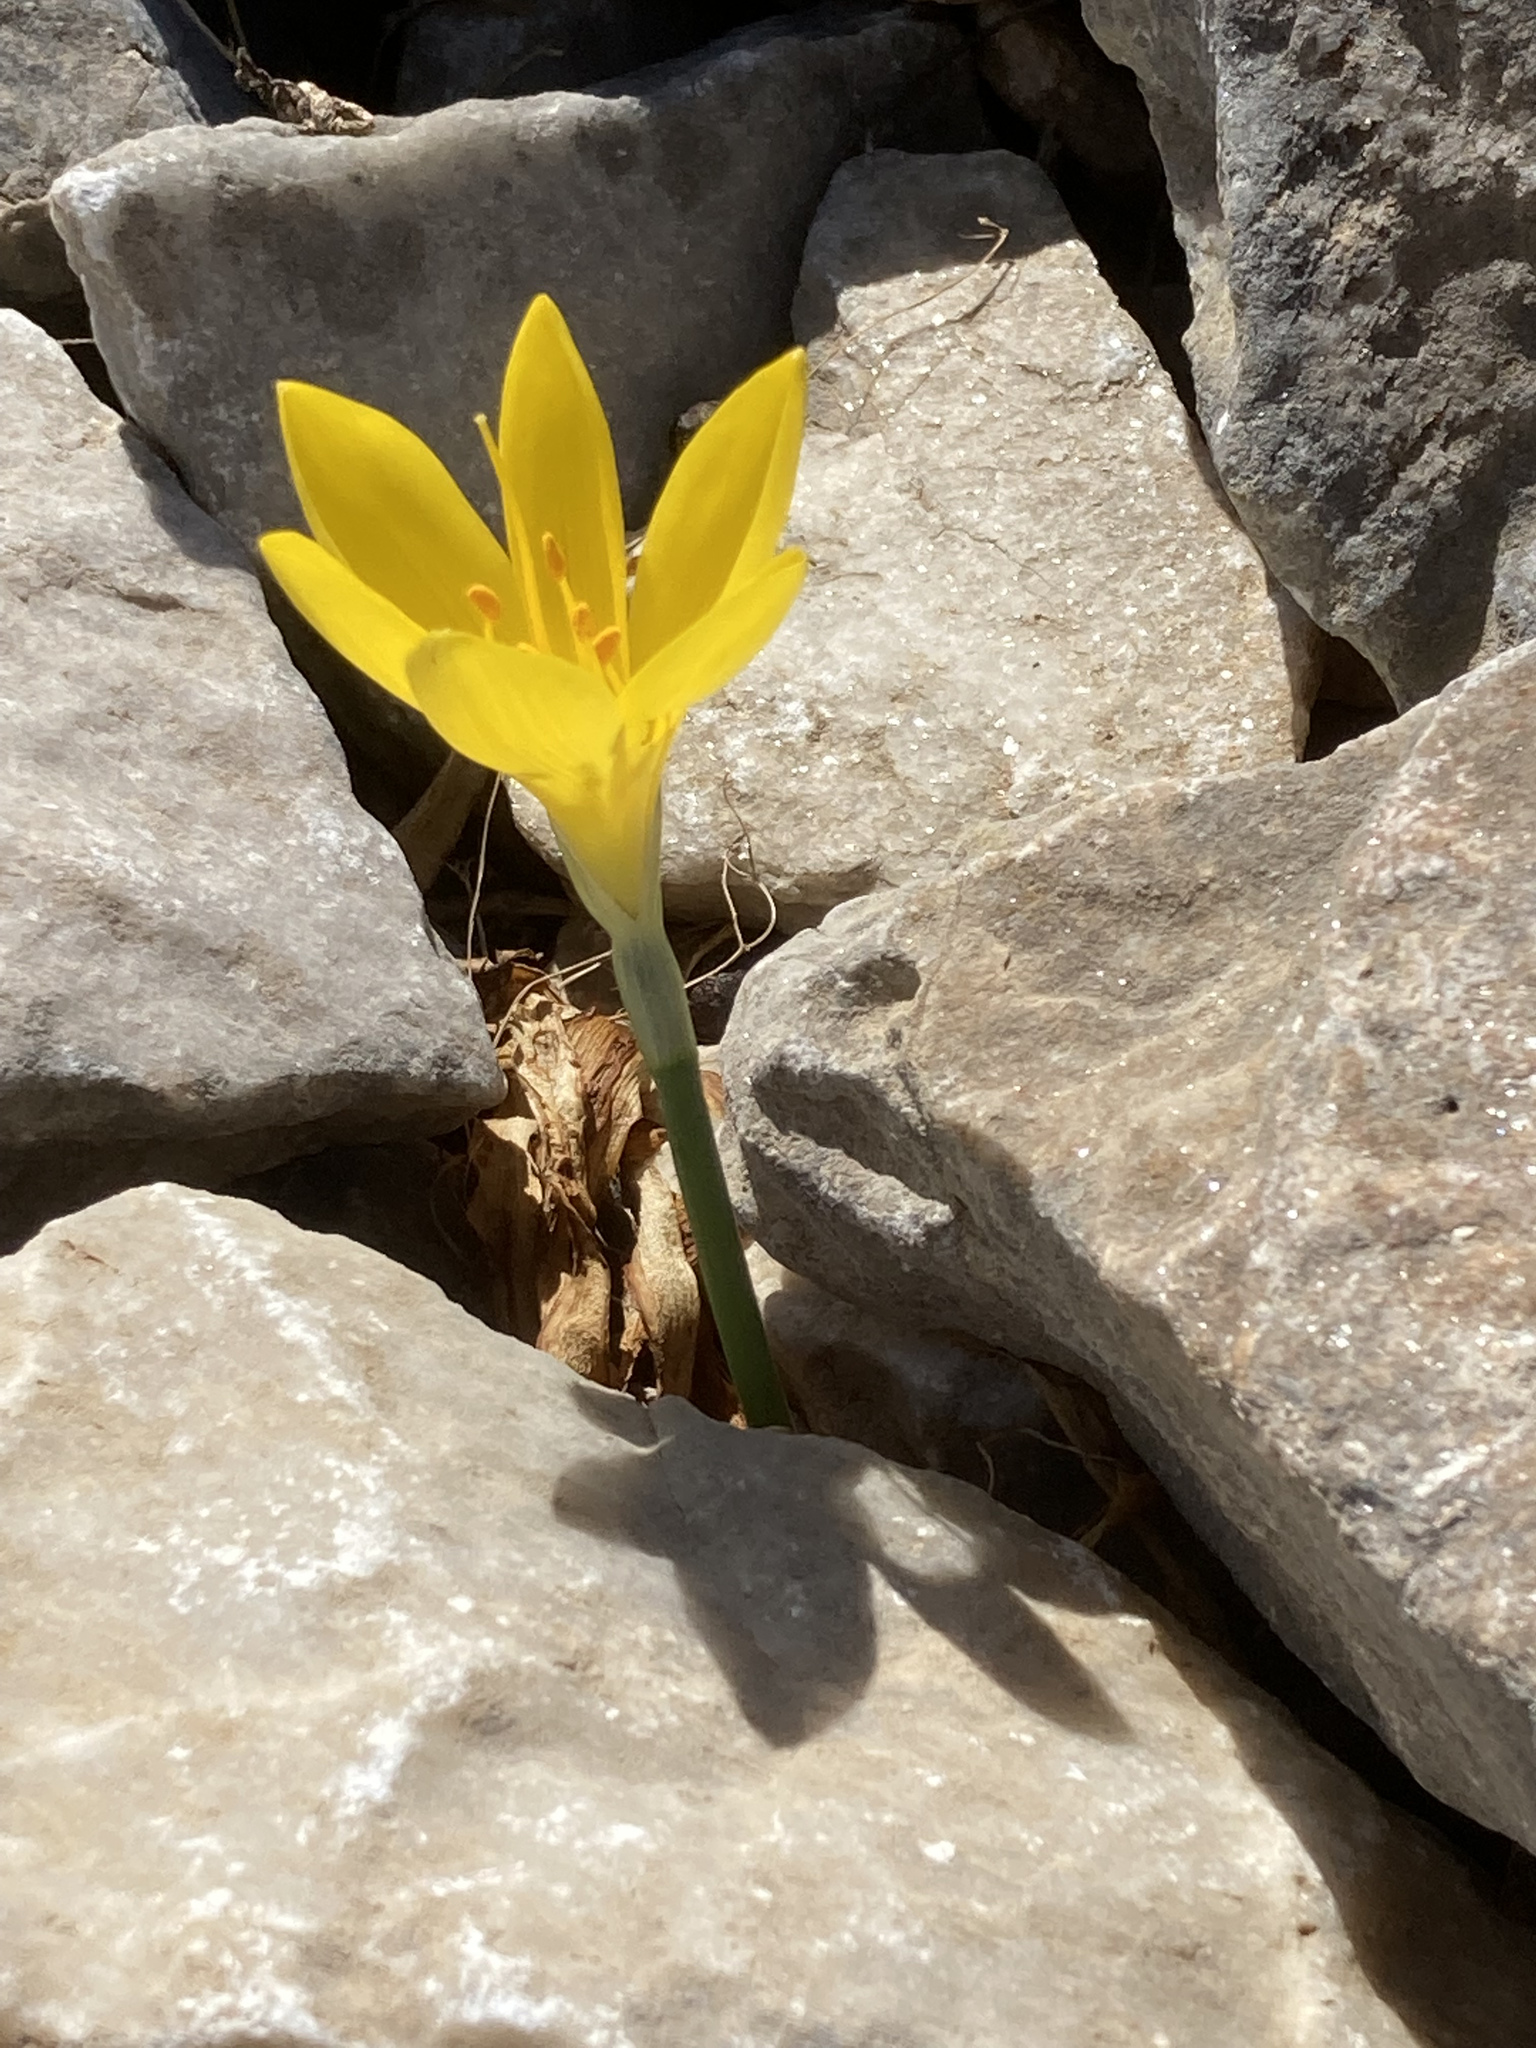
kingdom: Plantae
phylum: Tracheophyta
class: Liliopsida
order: Asparagales
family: Amaryllidaceae
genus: Sternbergia
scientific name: Sternbergia lutea
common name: Winter daffodil
